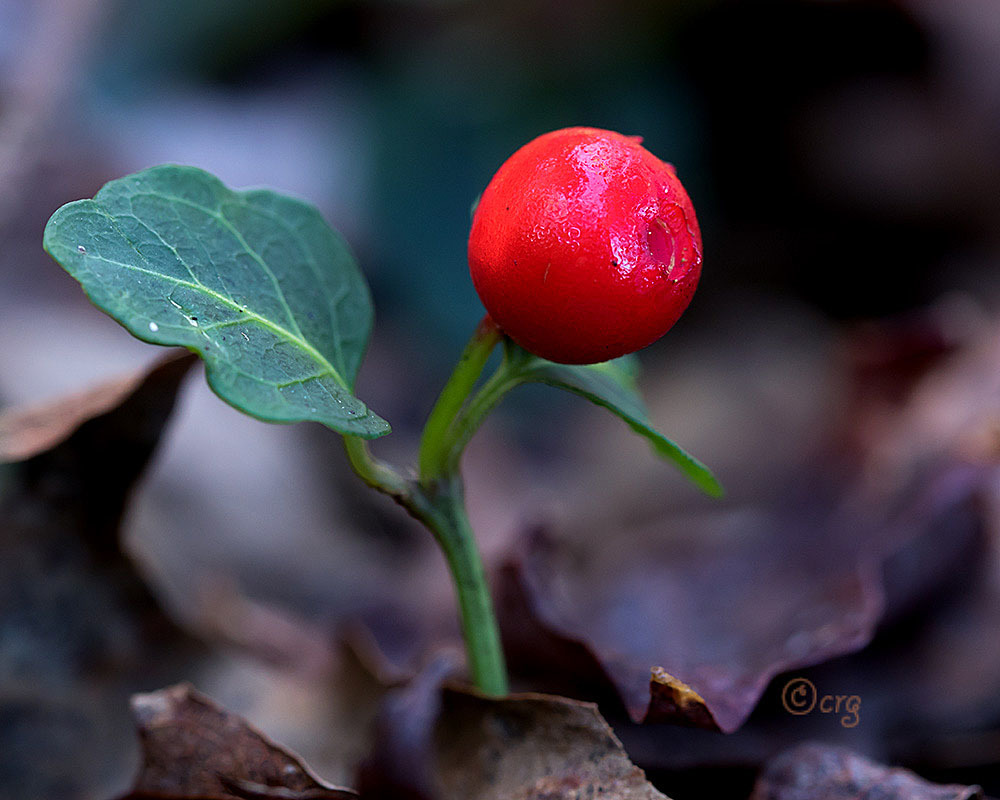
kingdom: Plantae
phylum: Tracheophyta
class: Magnoliopsida
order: Gentianales
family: Rubiaceae
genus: Mitchella
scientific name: Mitchella repens
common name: Partridge-berry
